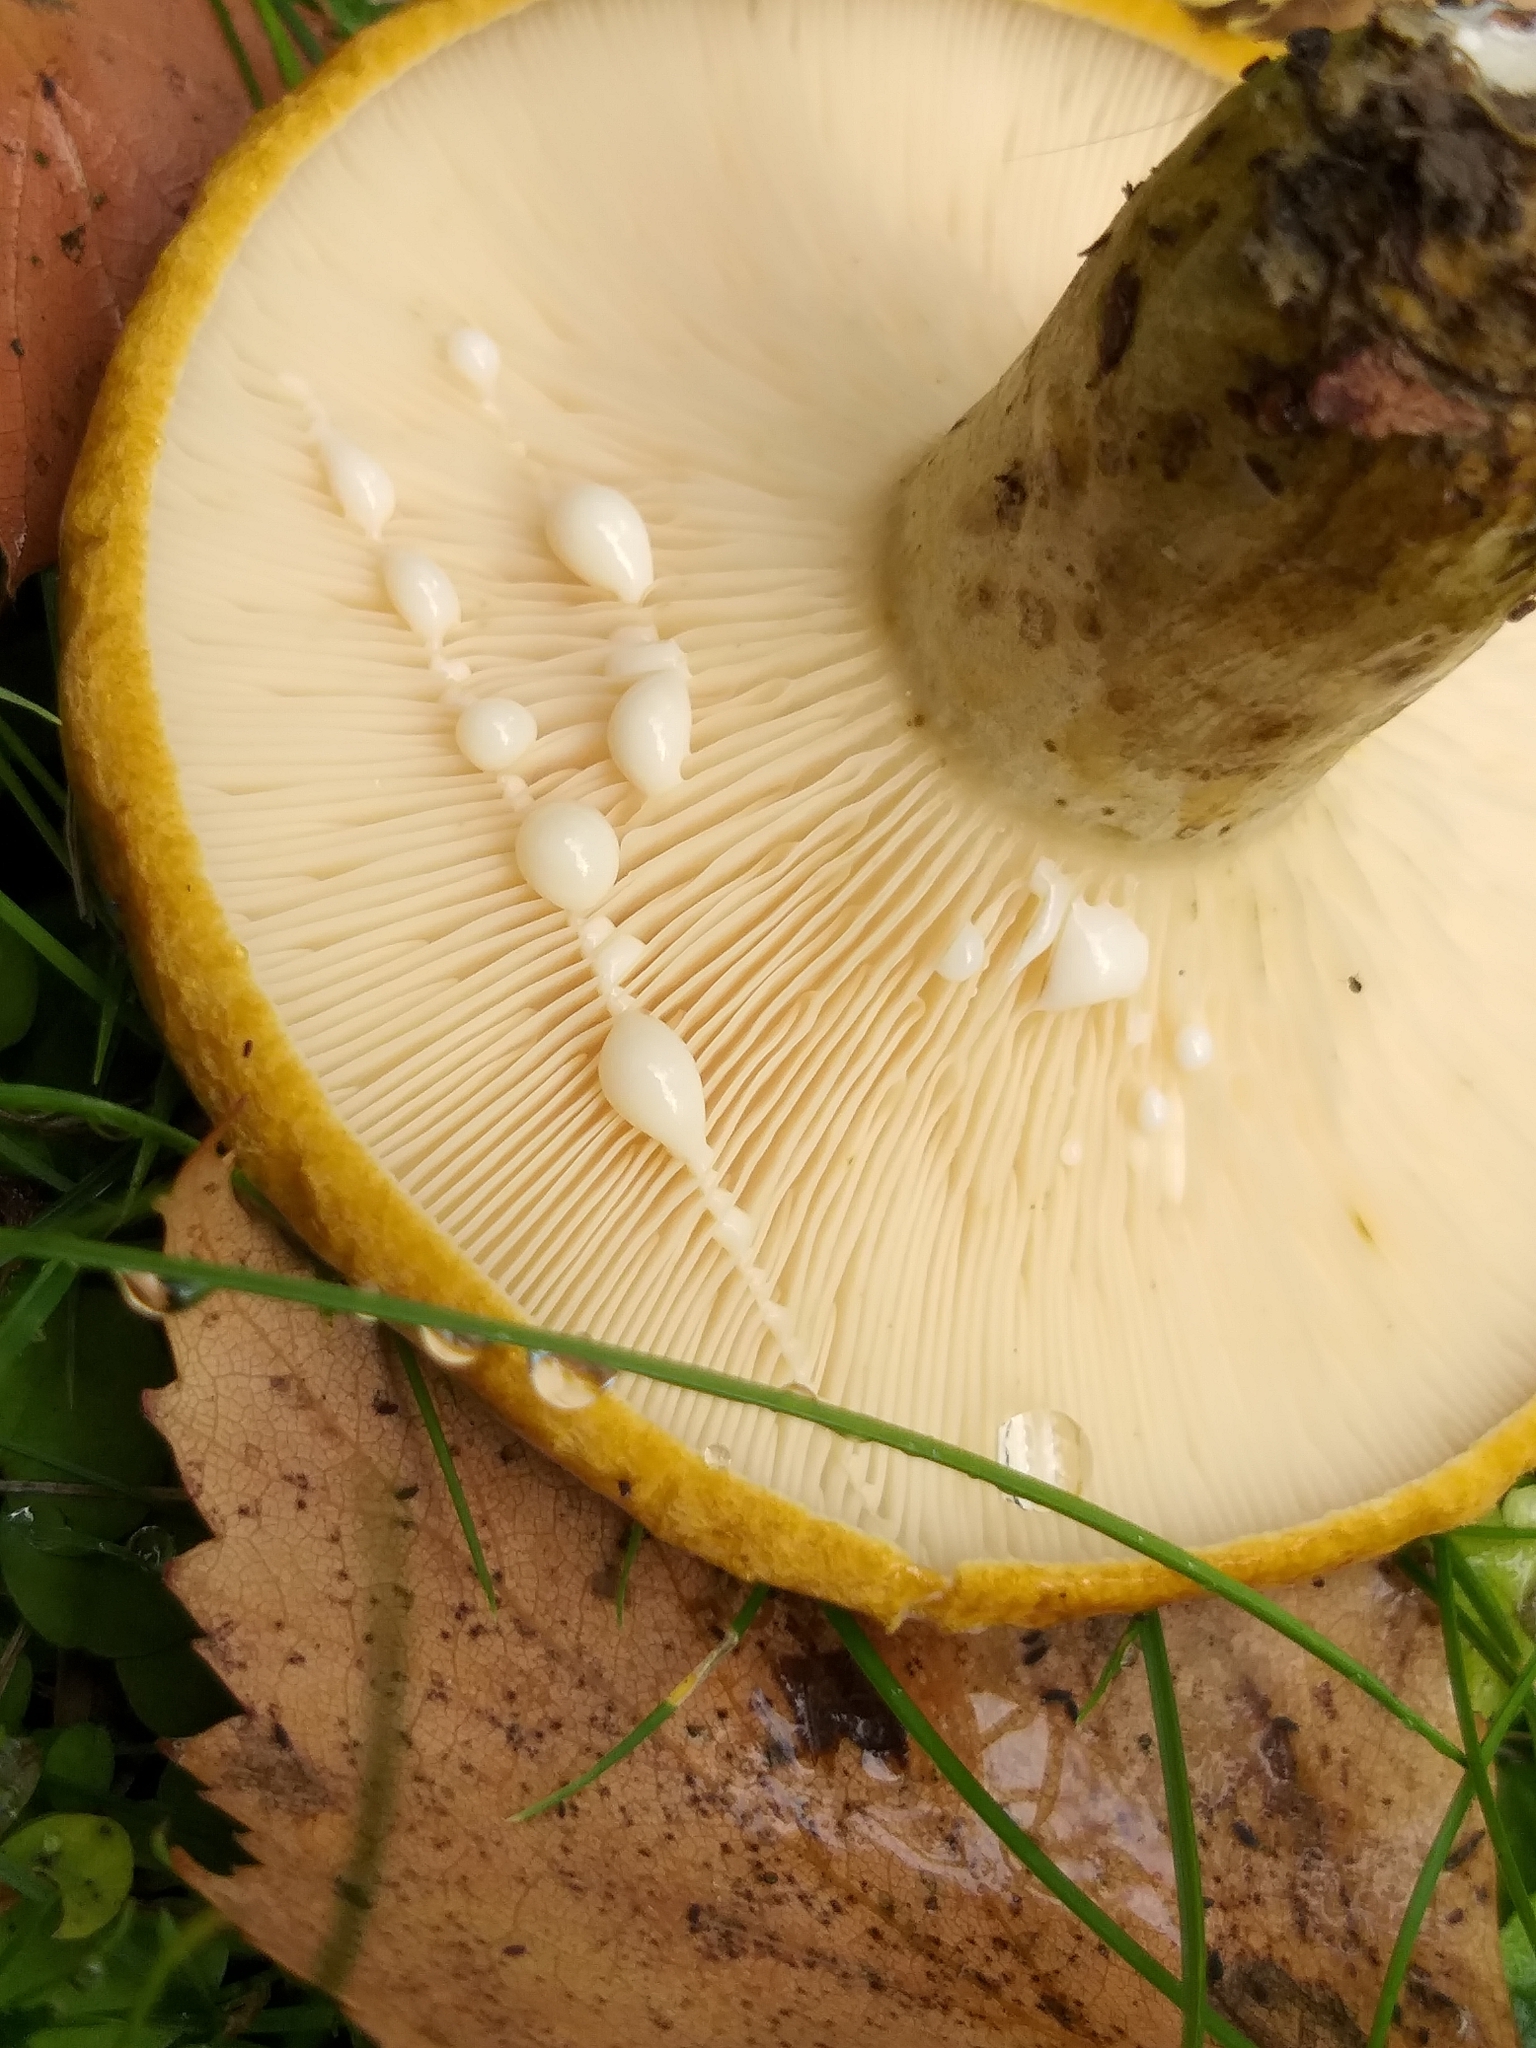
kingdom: Fungi
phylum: Basidiomycota
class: Agaricomycetes
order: Russulales
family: Russulaceae
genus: Lactarius
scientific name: Lactarius turpis
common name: Ugly milk-cap
